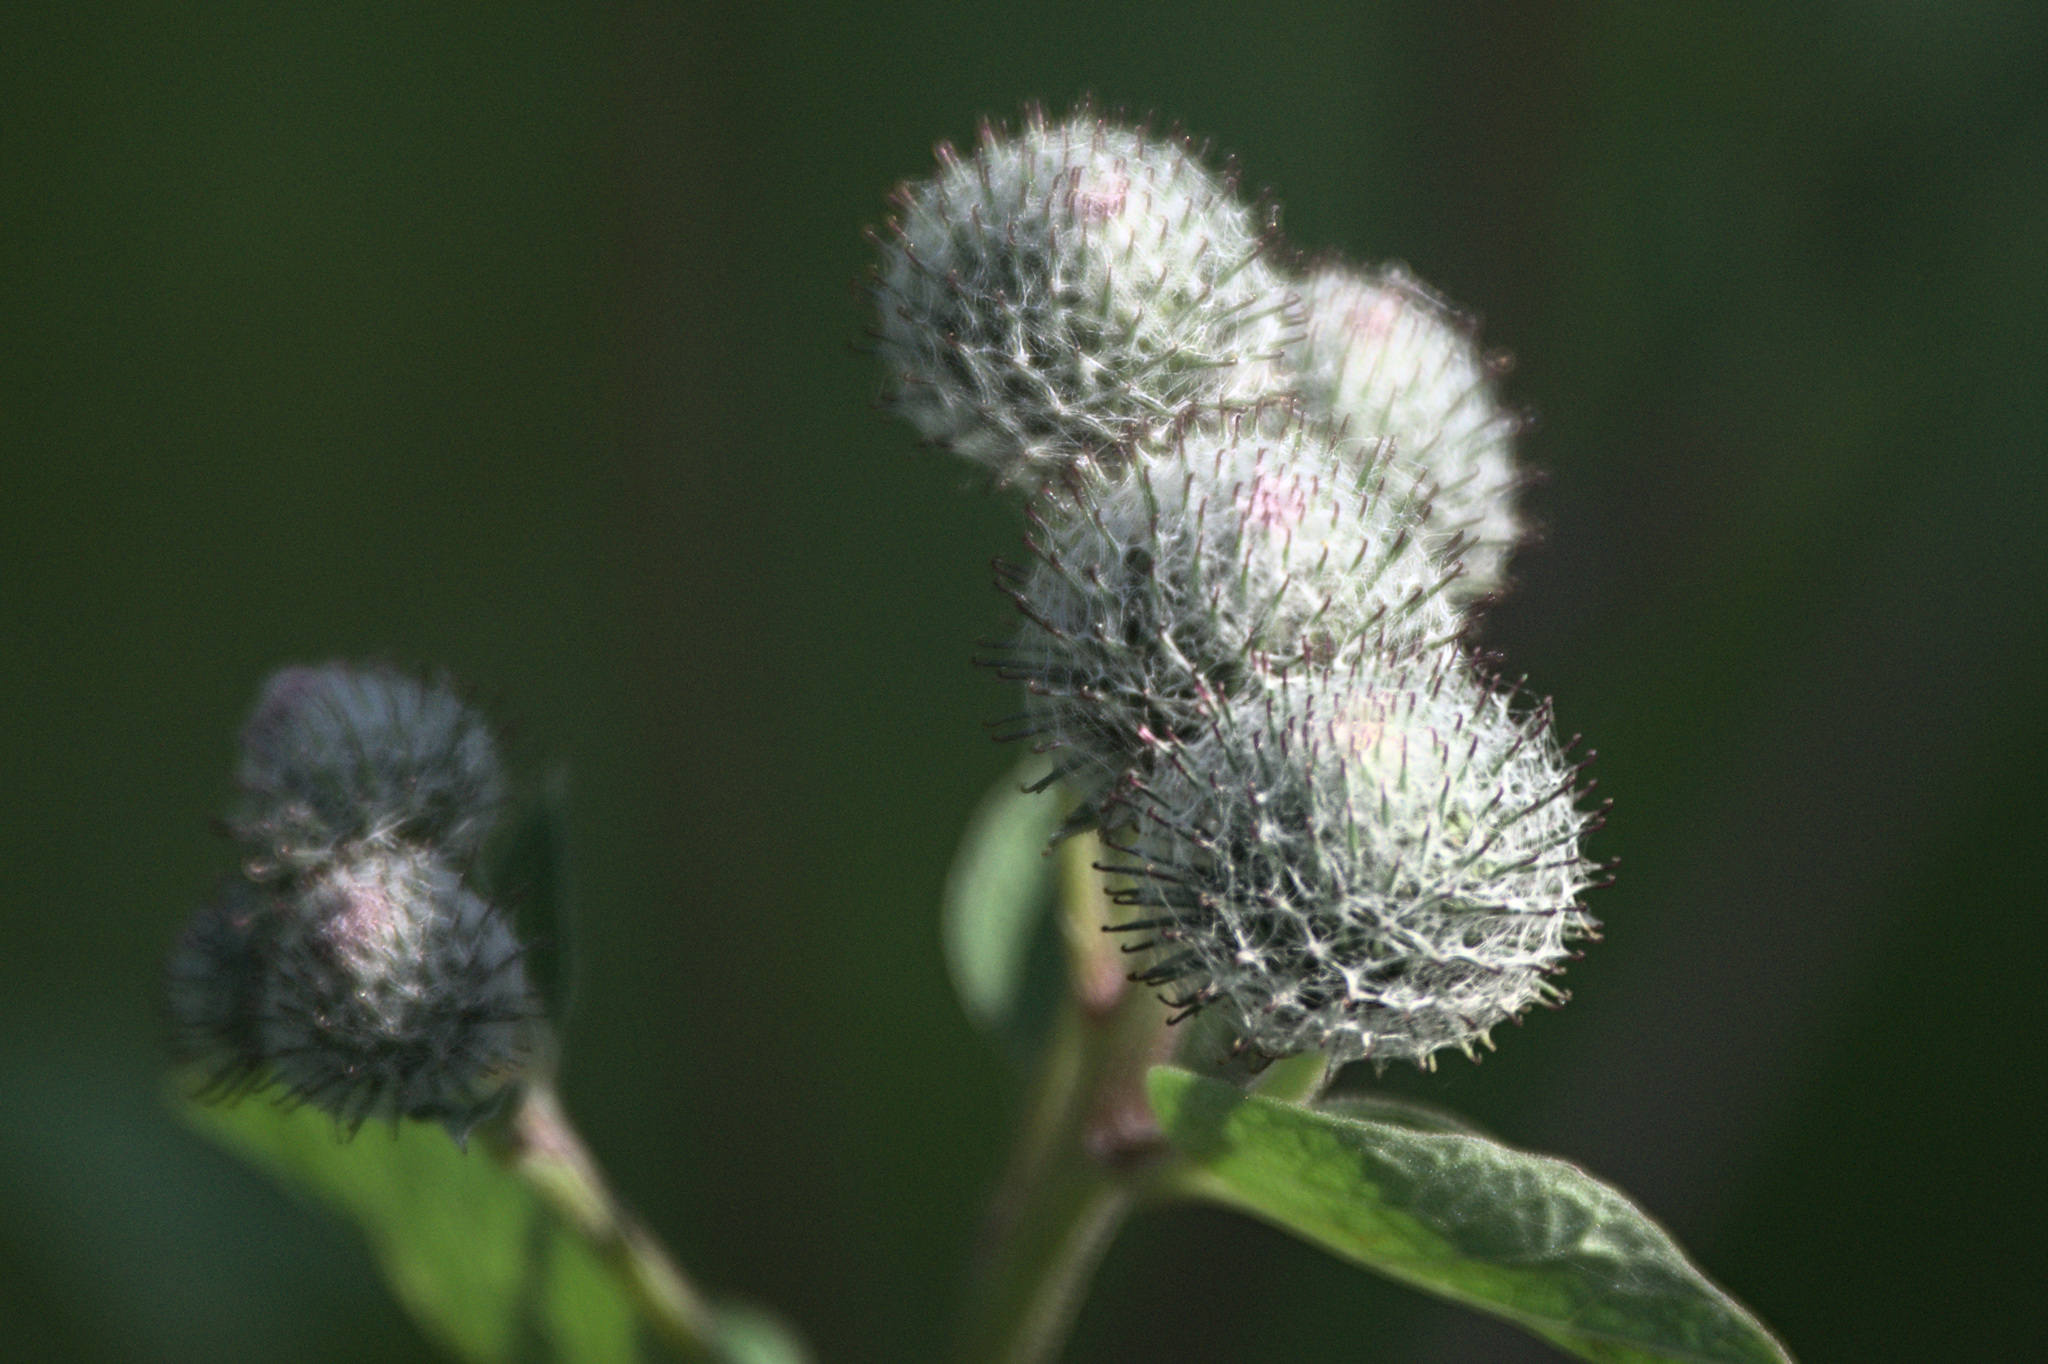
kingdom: Plantae
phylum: Tracheophyta
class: Magnoliopsida
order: Asterales
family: Asteraceae
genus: Arctium
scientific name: Arctium tomentosum
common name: Woolly burdock
